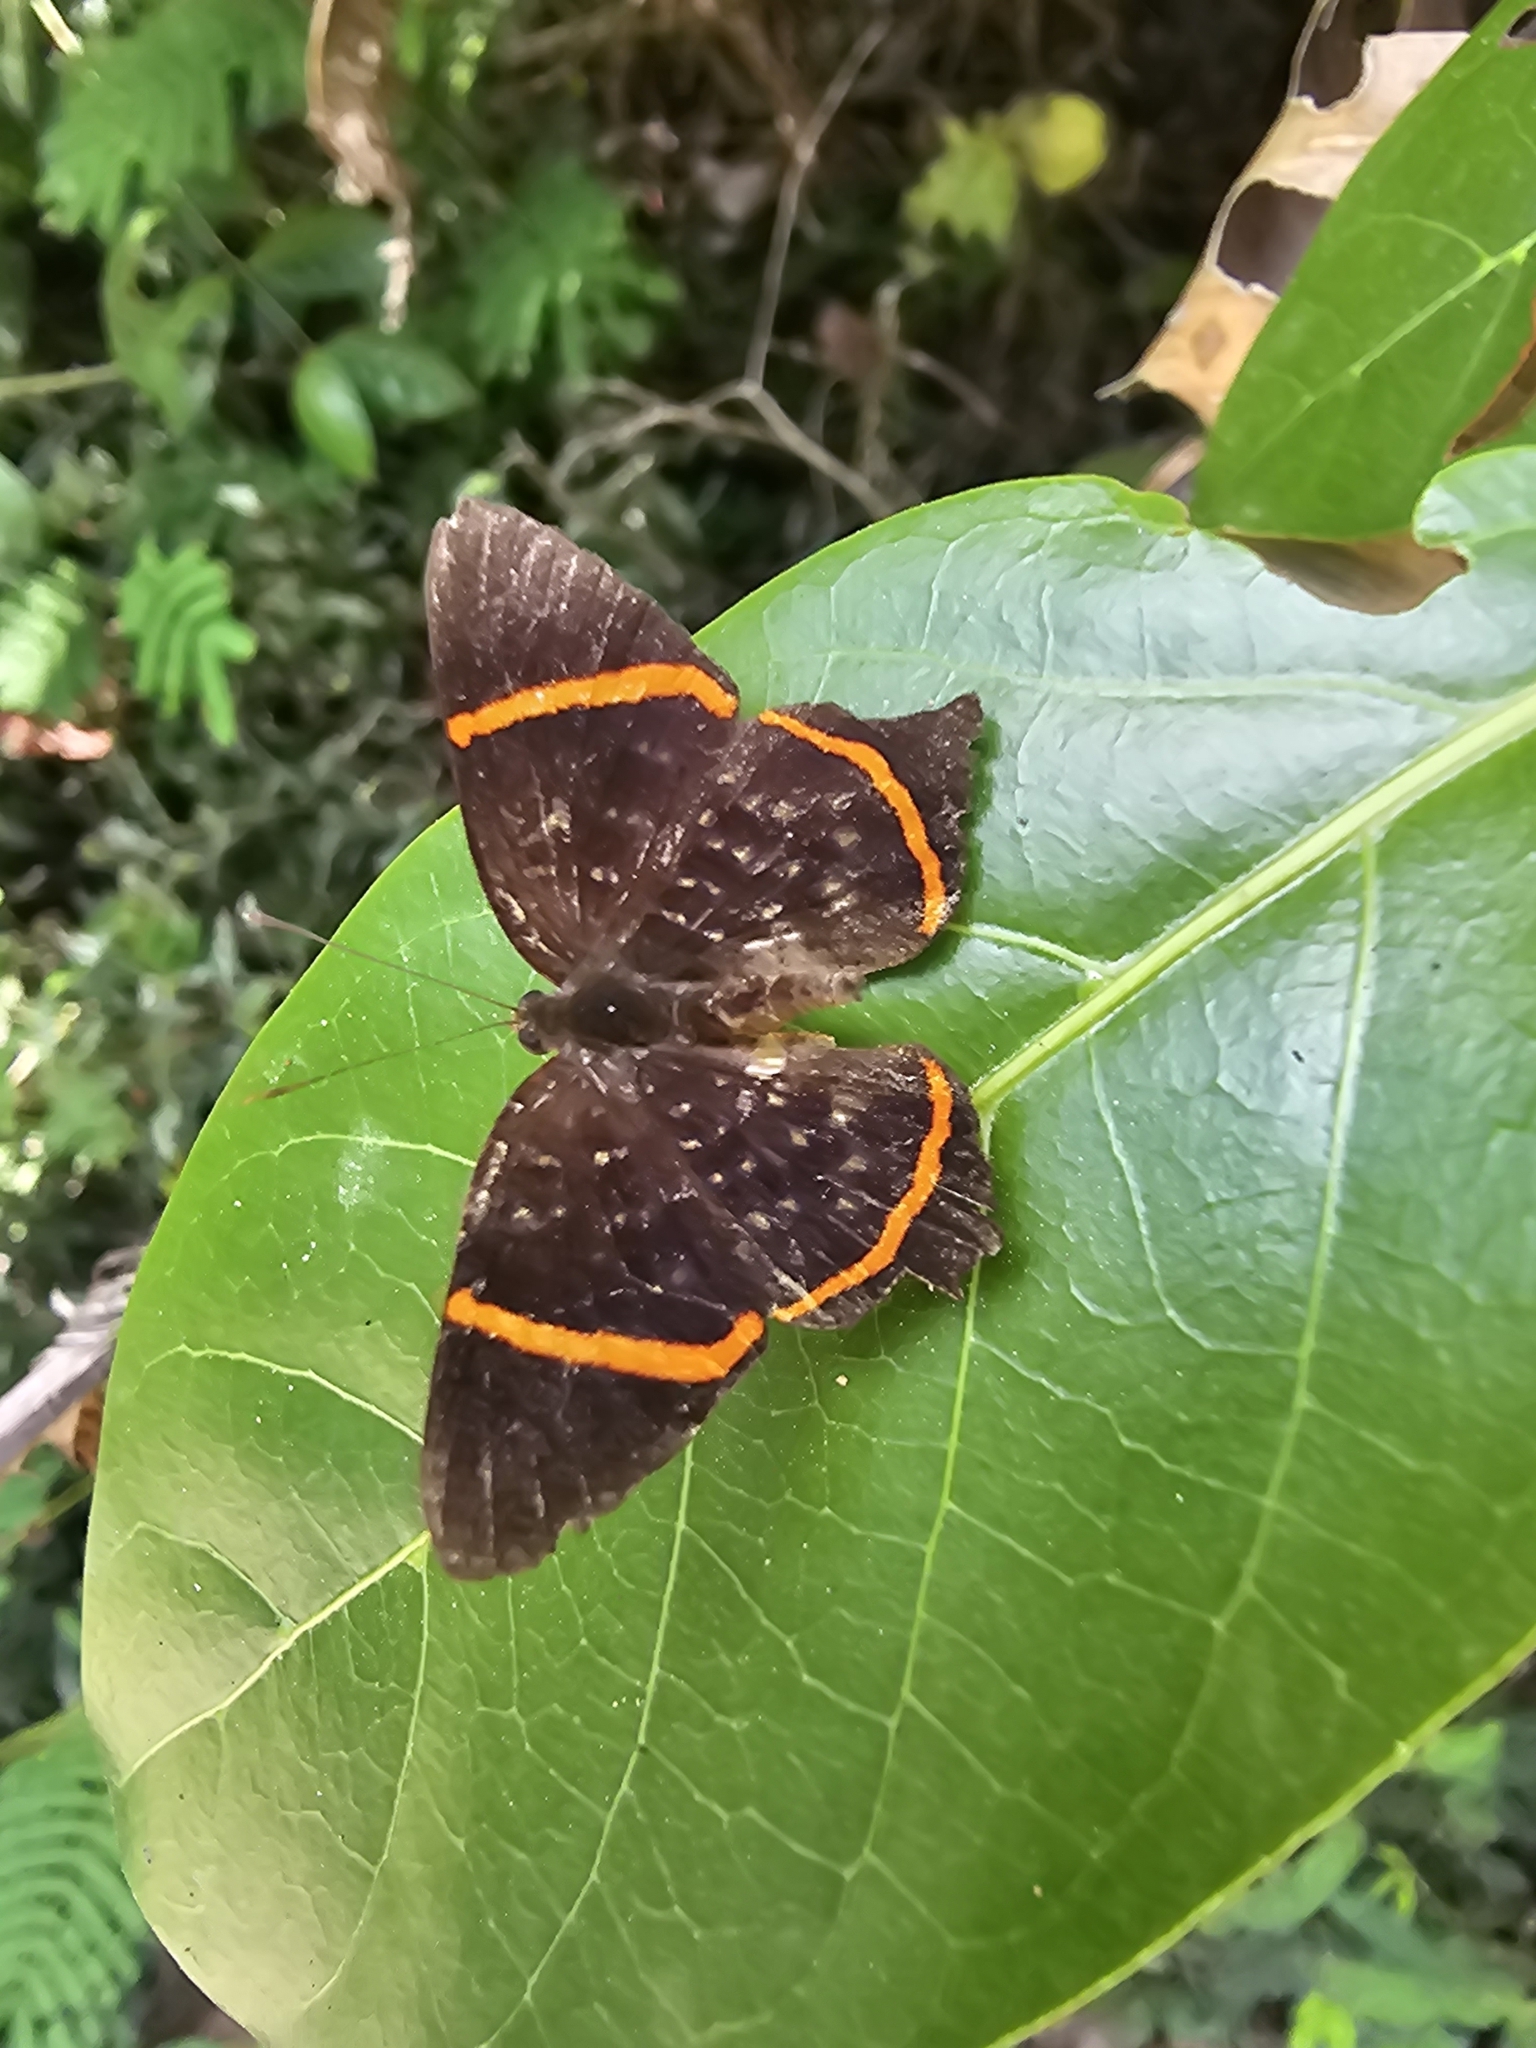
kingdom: Animalia
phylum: Arthropoda
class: Insecta
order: Lepidoptera
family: Riodinidae
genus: Riodina
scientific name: Riodina lysippus
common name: Lysippus metalmark
